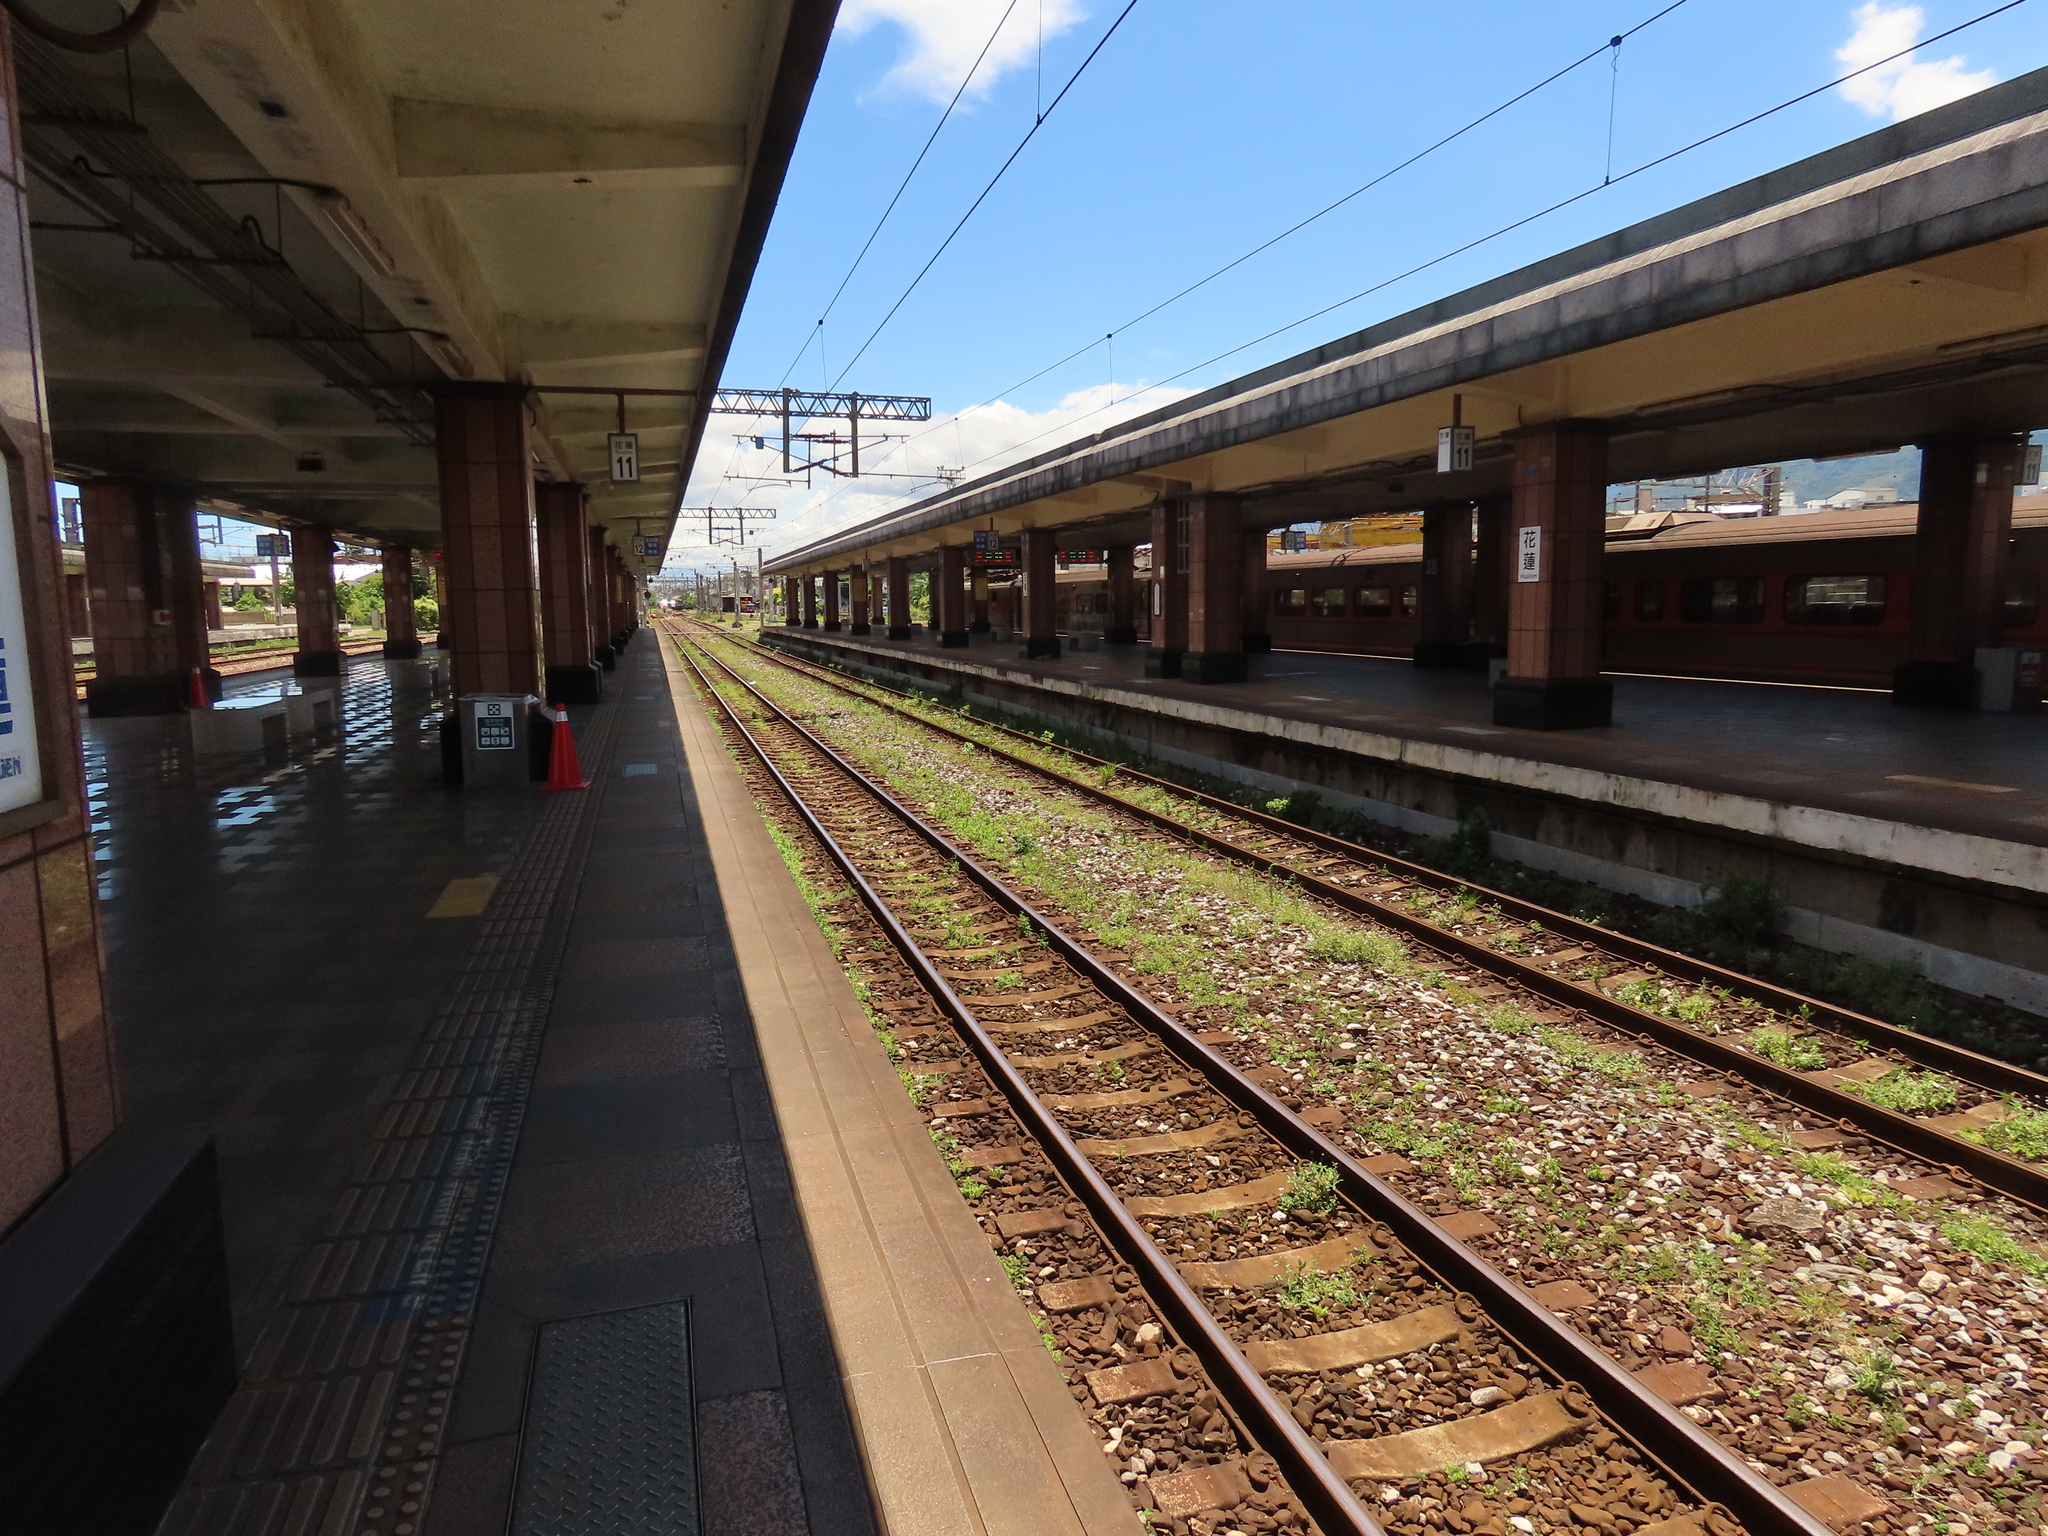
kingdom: Plantae
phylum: Tracheophyta
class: Magnoliopsida
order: Malpighiales
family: Phyllanthaceae
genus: Bischofia
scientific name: Bischofia javanica
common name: Javanese bishopwood
